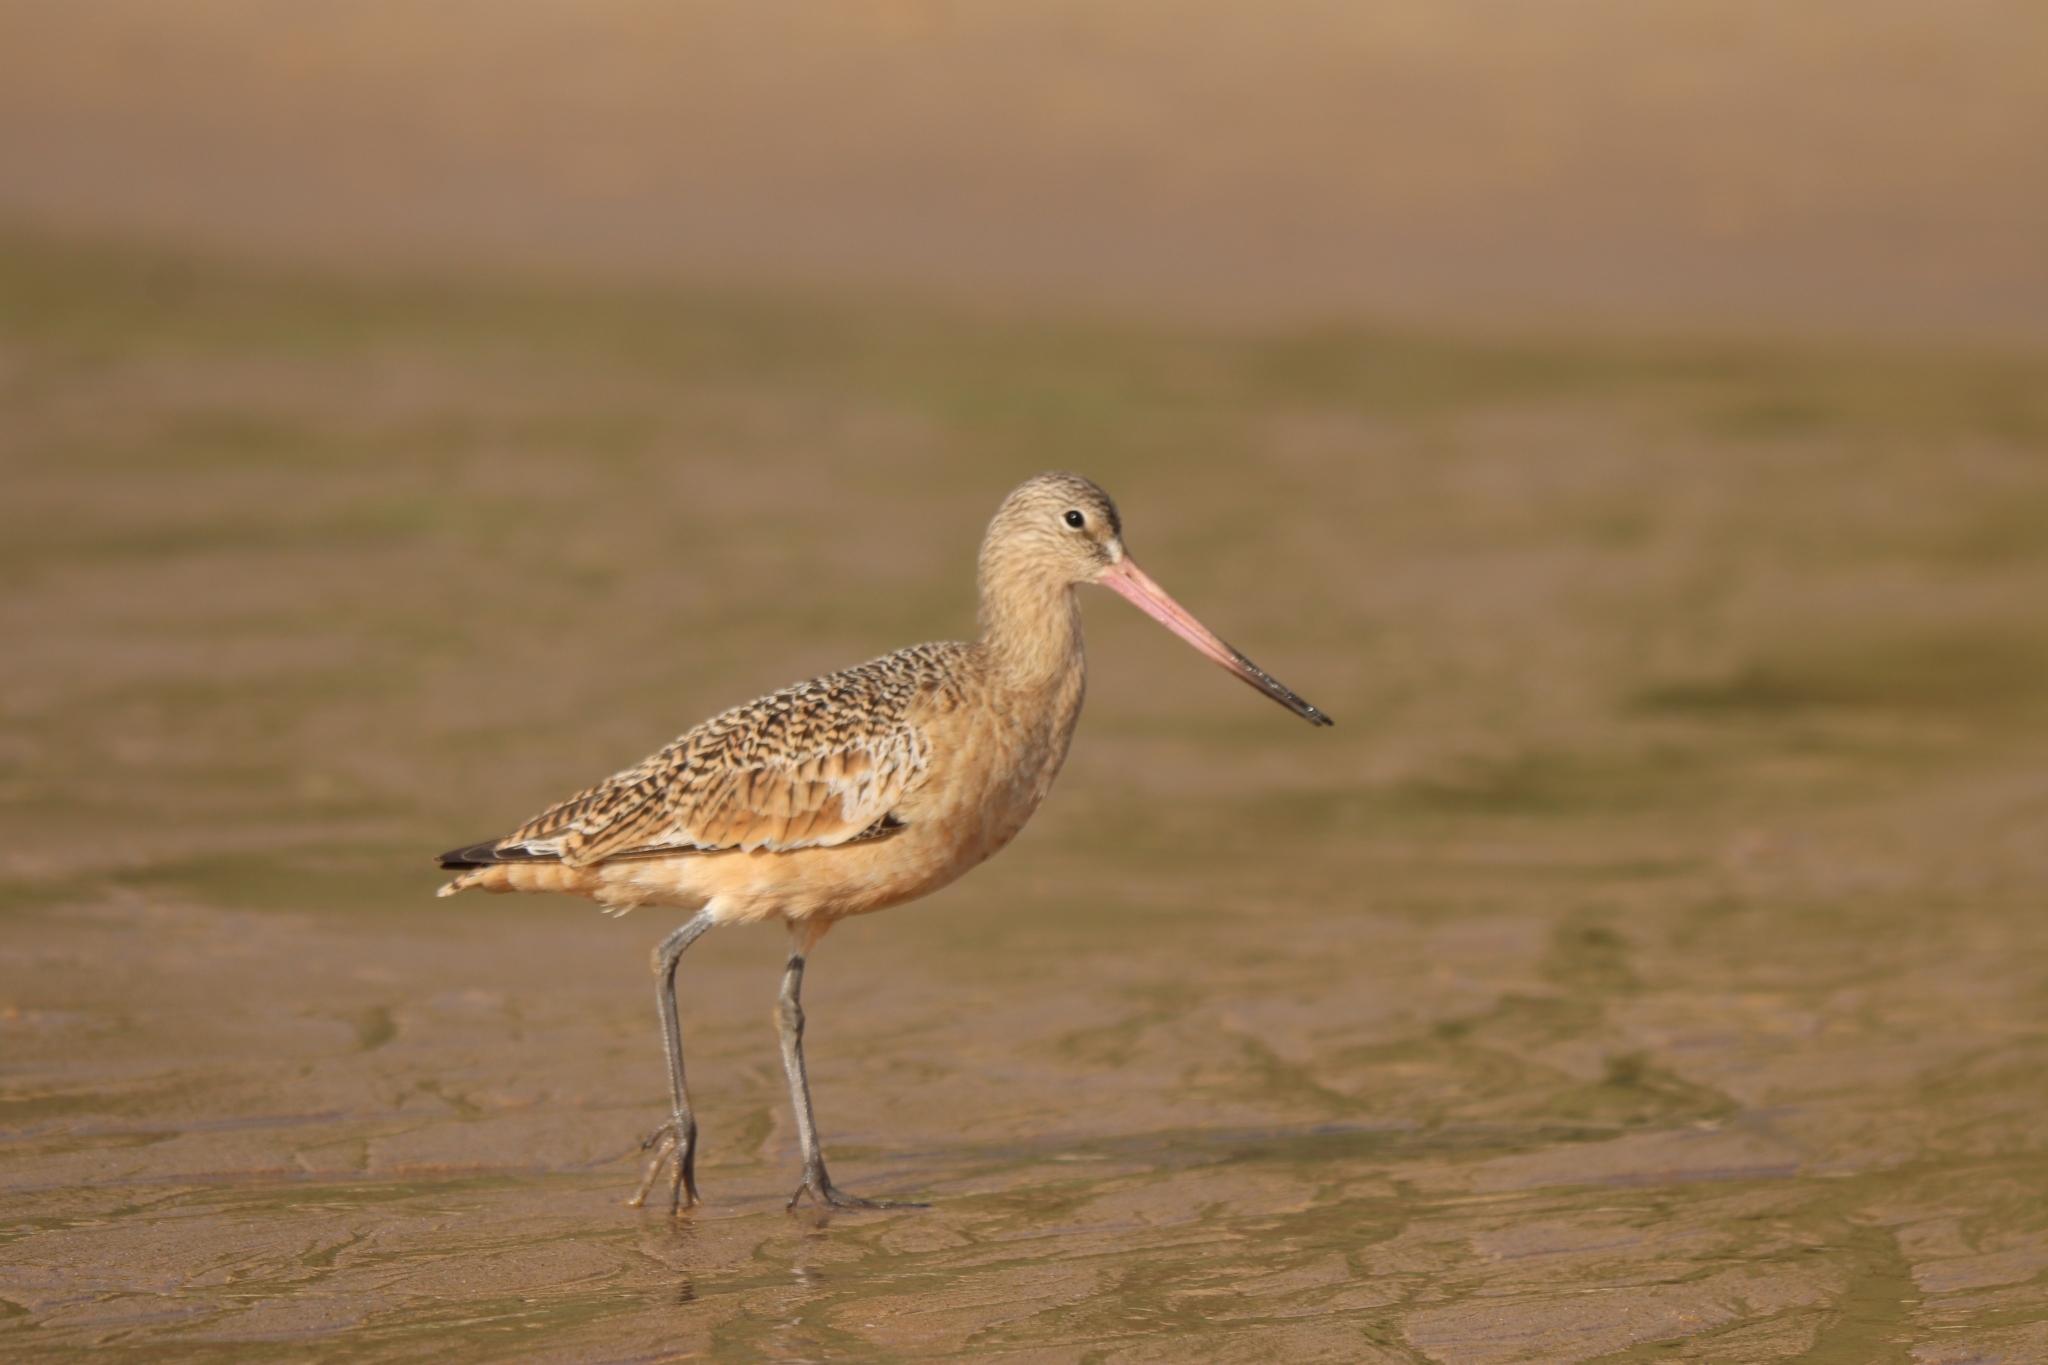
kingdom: Animalia
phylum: Chordata
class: Aves
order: Charadriiformes
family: Scolopacidae
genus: Limosa
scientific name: Limosa fedoa
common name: Marbled godwit
